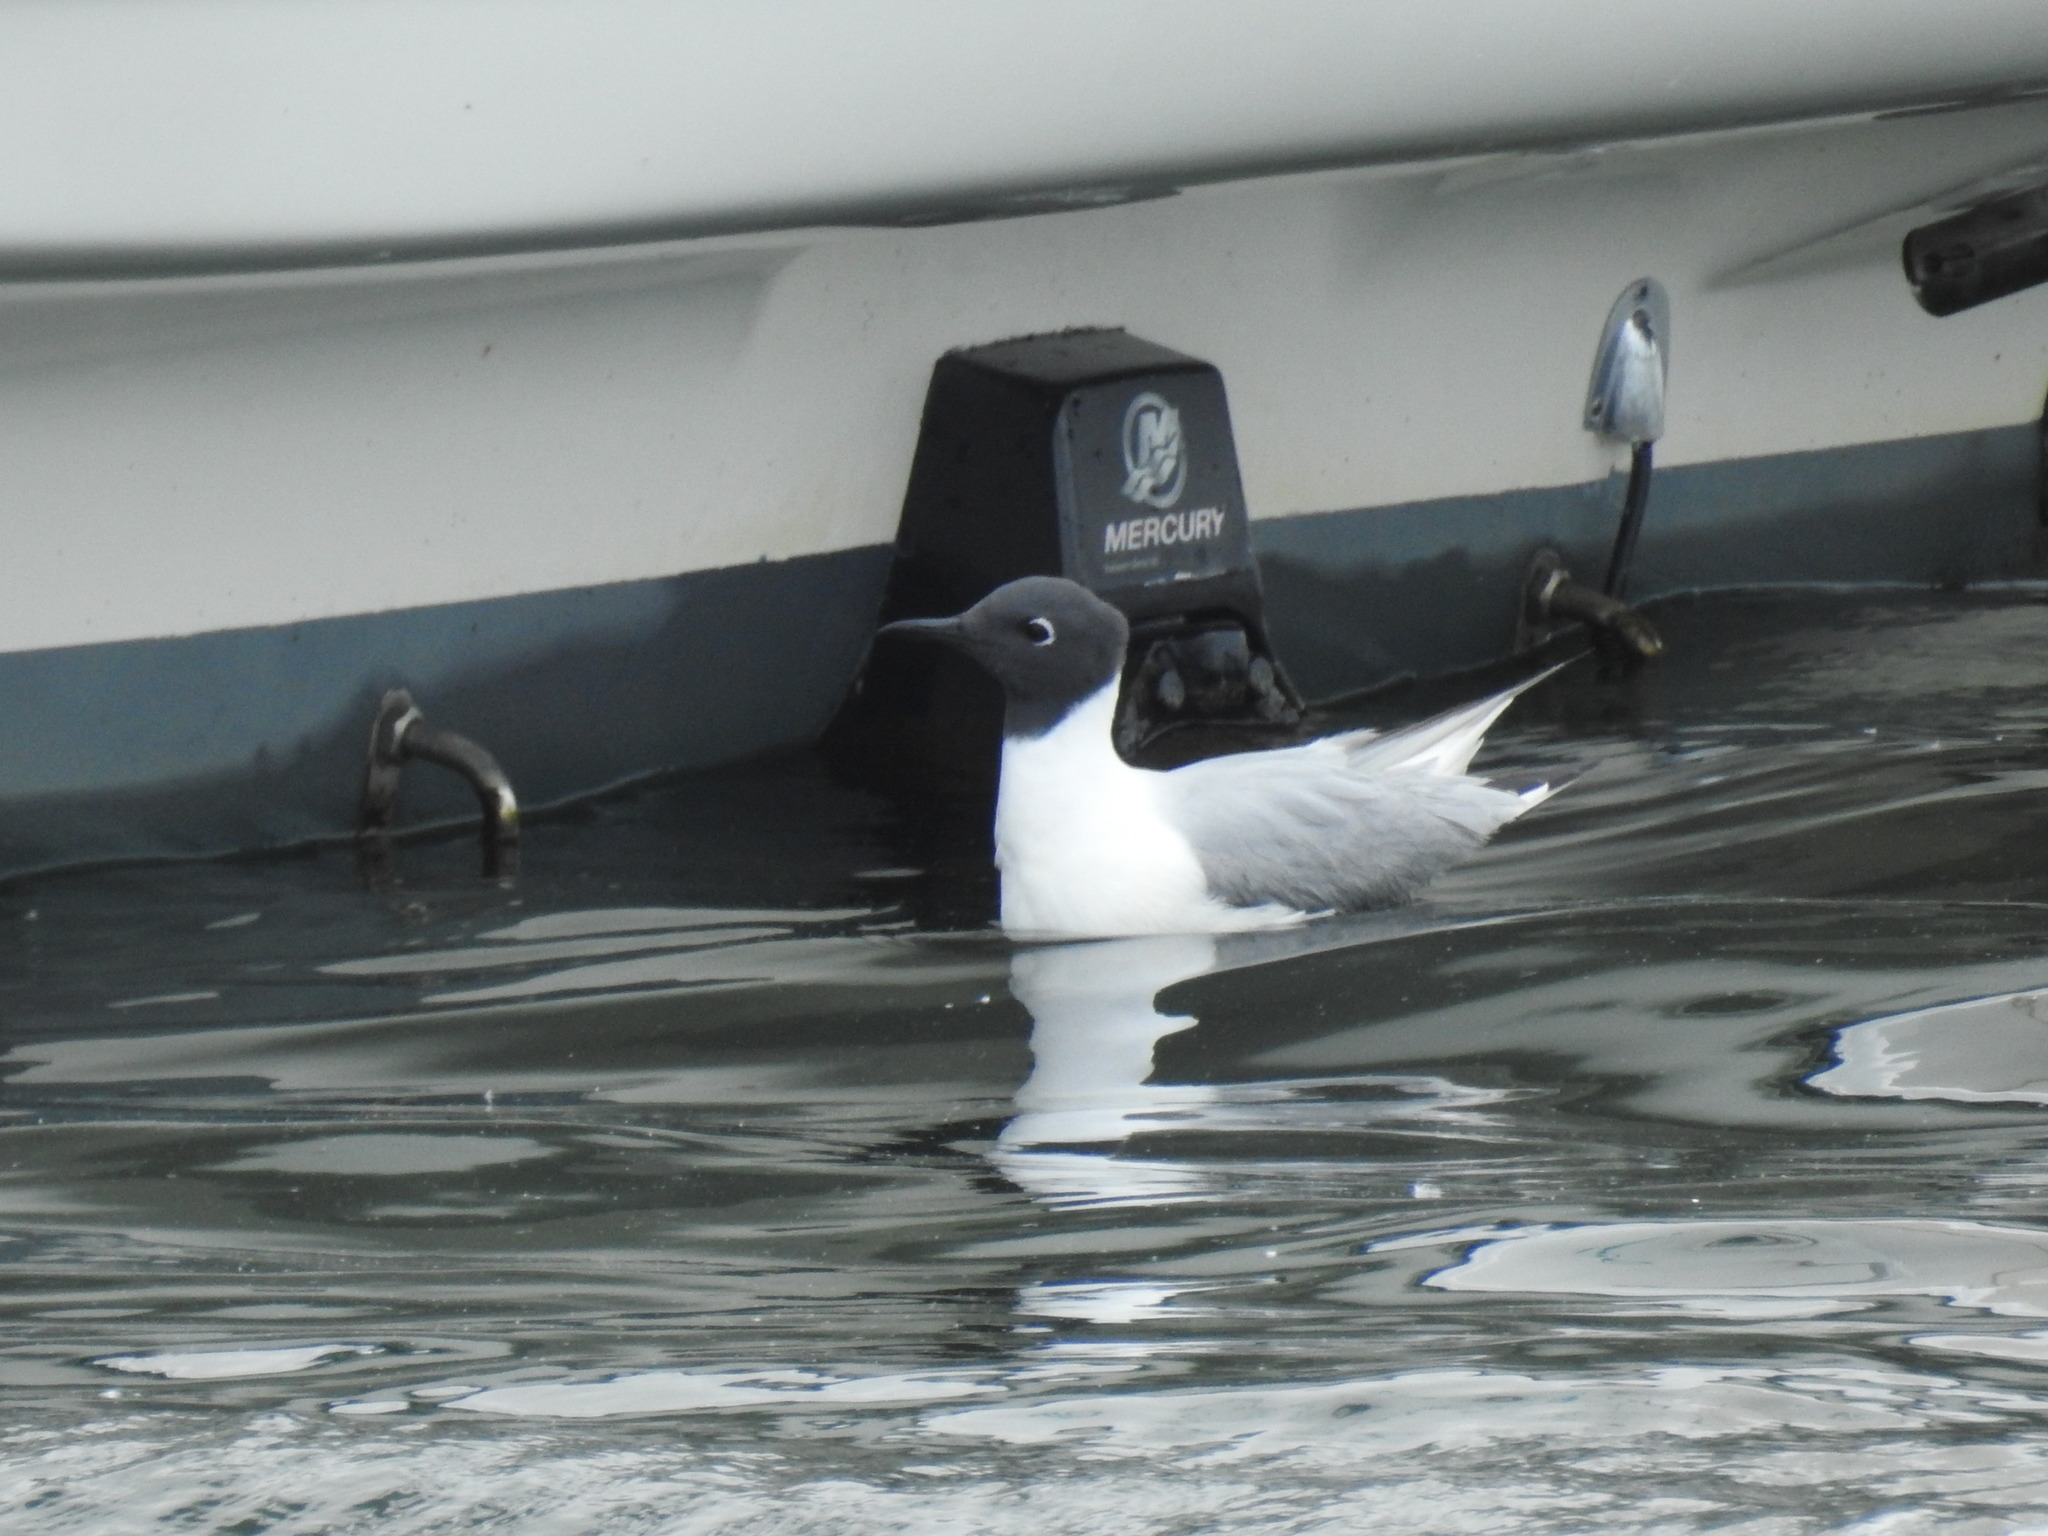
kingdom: Animalia
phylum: Chordata
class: Aves
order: Charadriiformes
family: Laridae
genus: Chroicocephalus
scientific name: Chroicocephalus philadelphia
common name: Bonaparte's gull
